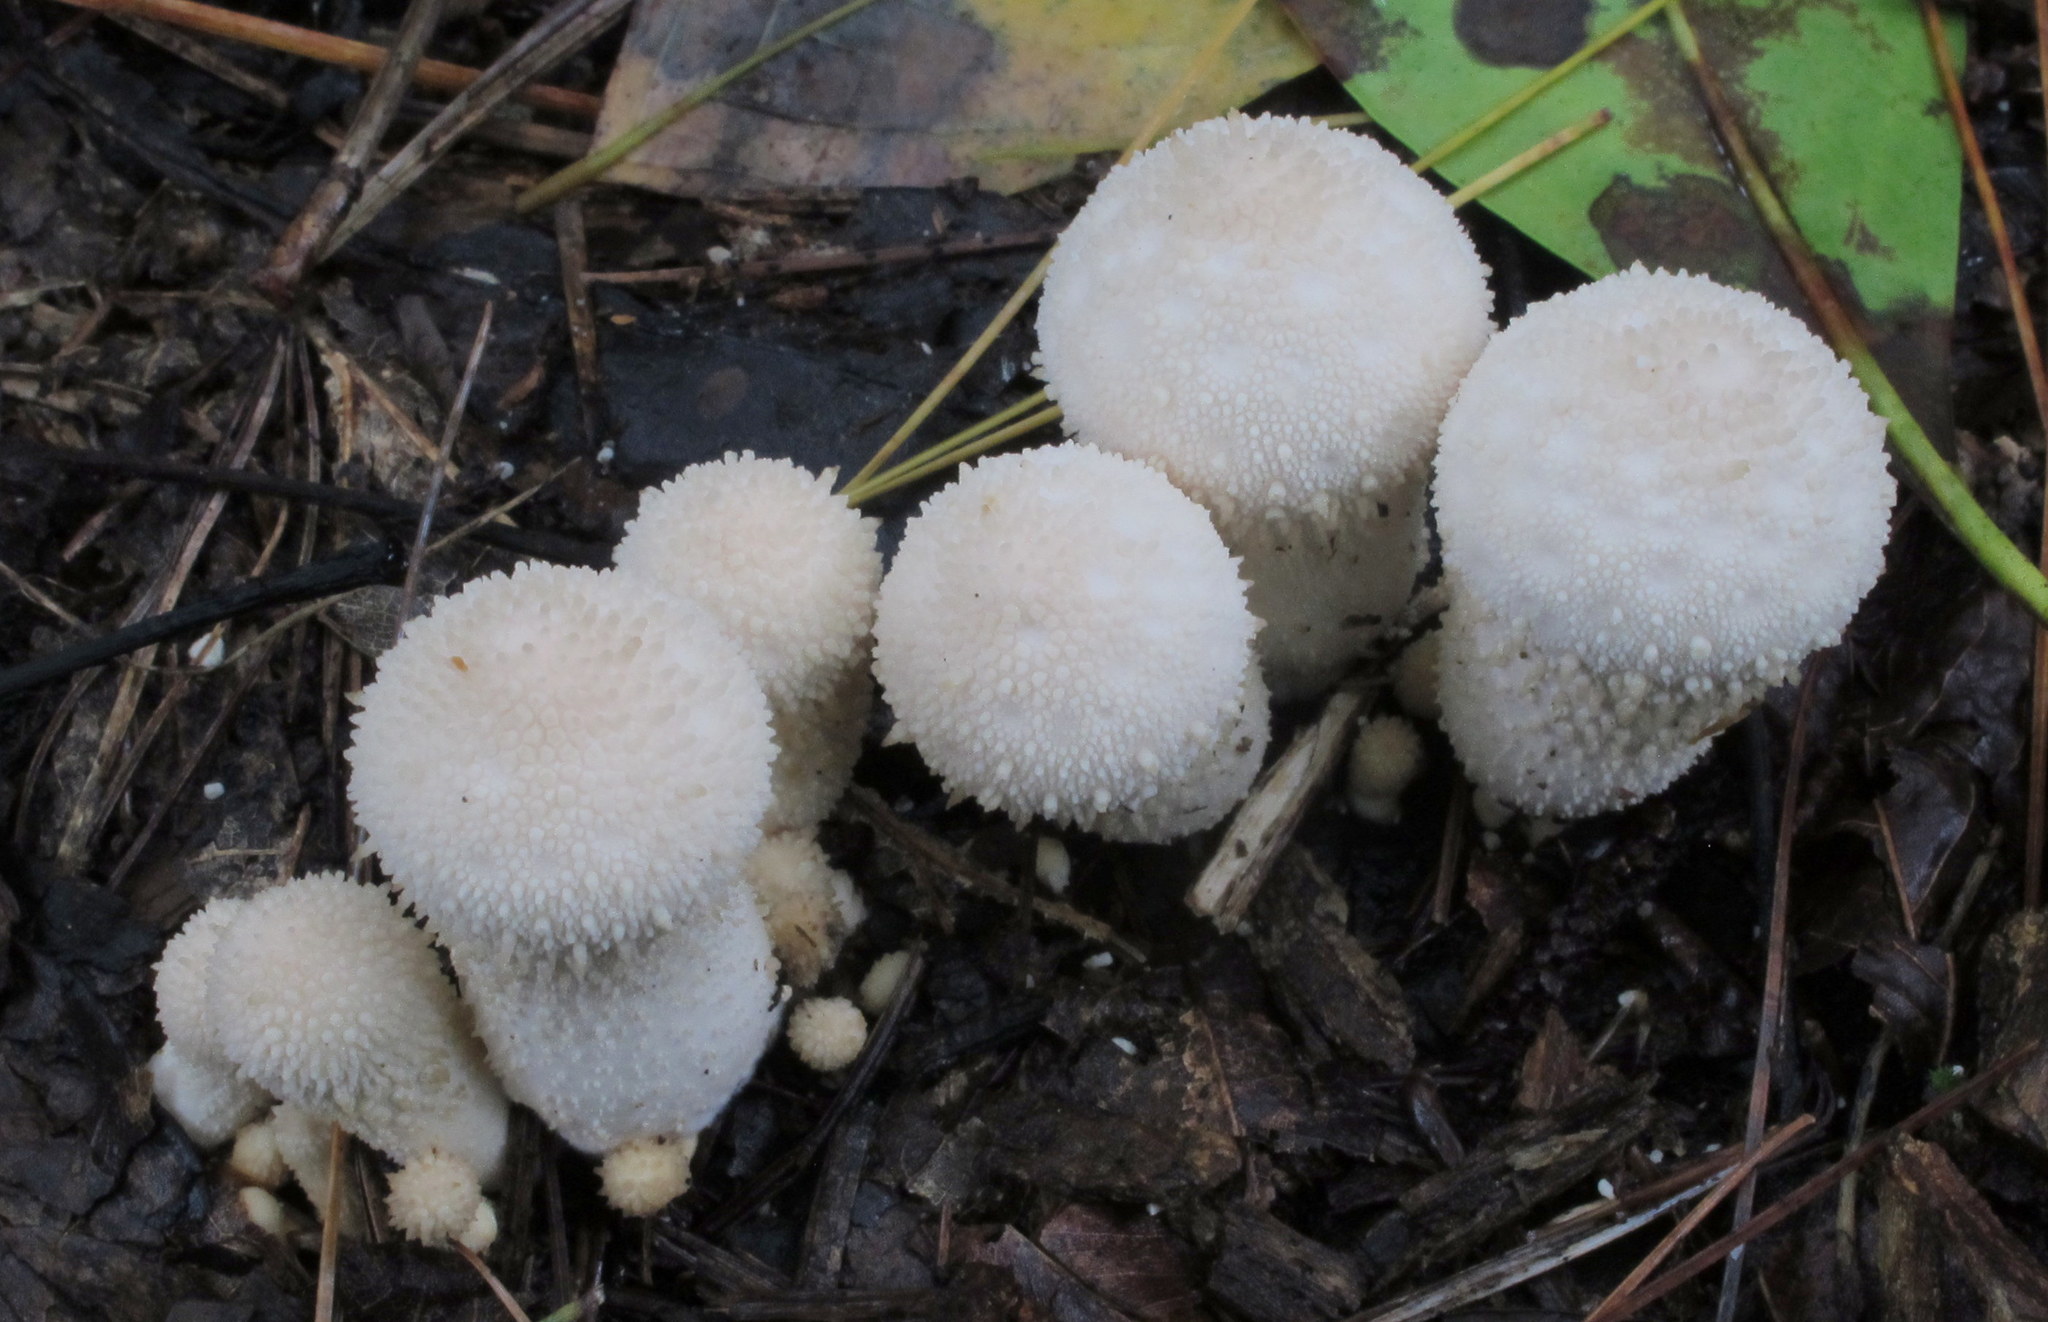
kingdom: Fungi
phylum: Basidiomycota
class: Agaricomycetes
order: Agaricales
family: Lycoperdaceae
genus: Lycoperdon
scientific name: Lycoperdon perlatum
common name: Common puffball
